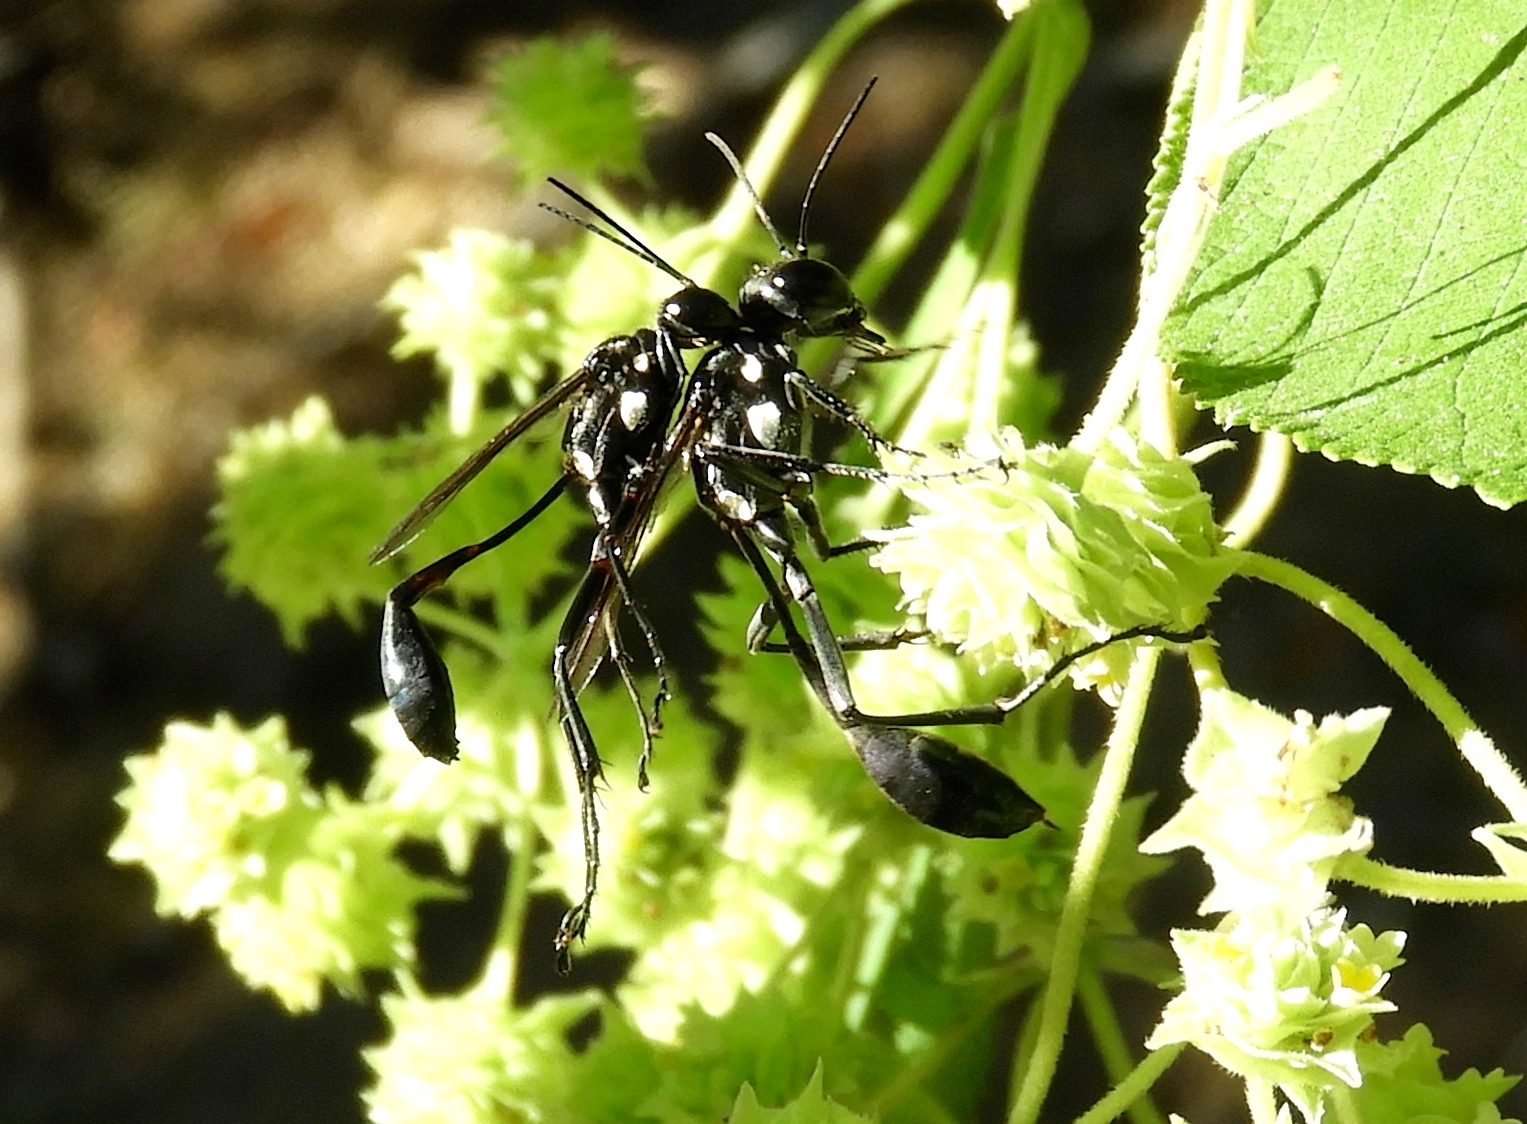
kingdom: Animalia
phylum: Arthropoda
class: Insecta
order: Hymenoptera
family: Sphecidae
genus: Eremnophila
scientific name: Eremnophila aureonotata
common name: Gold-marked thread-waisted wasp
